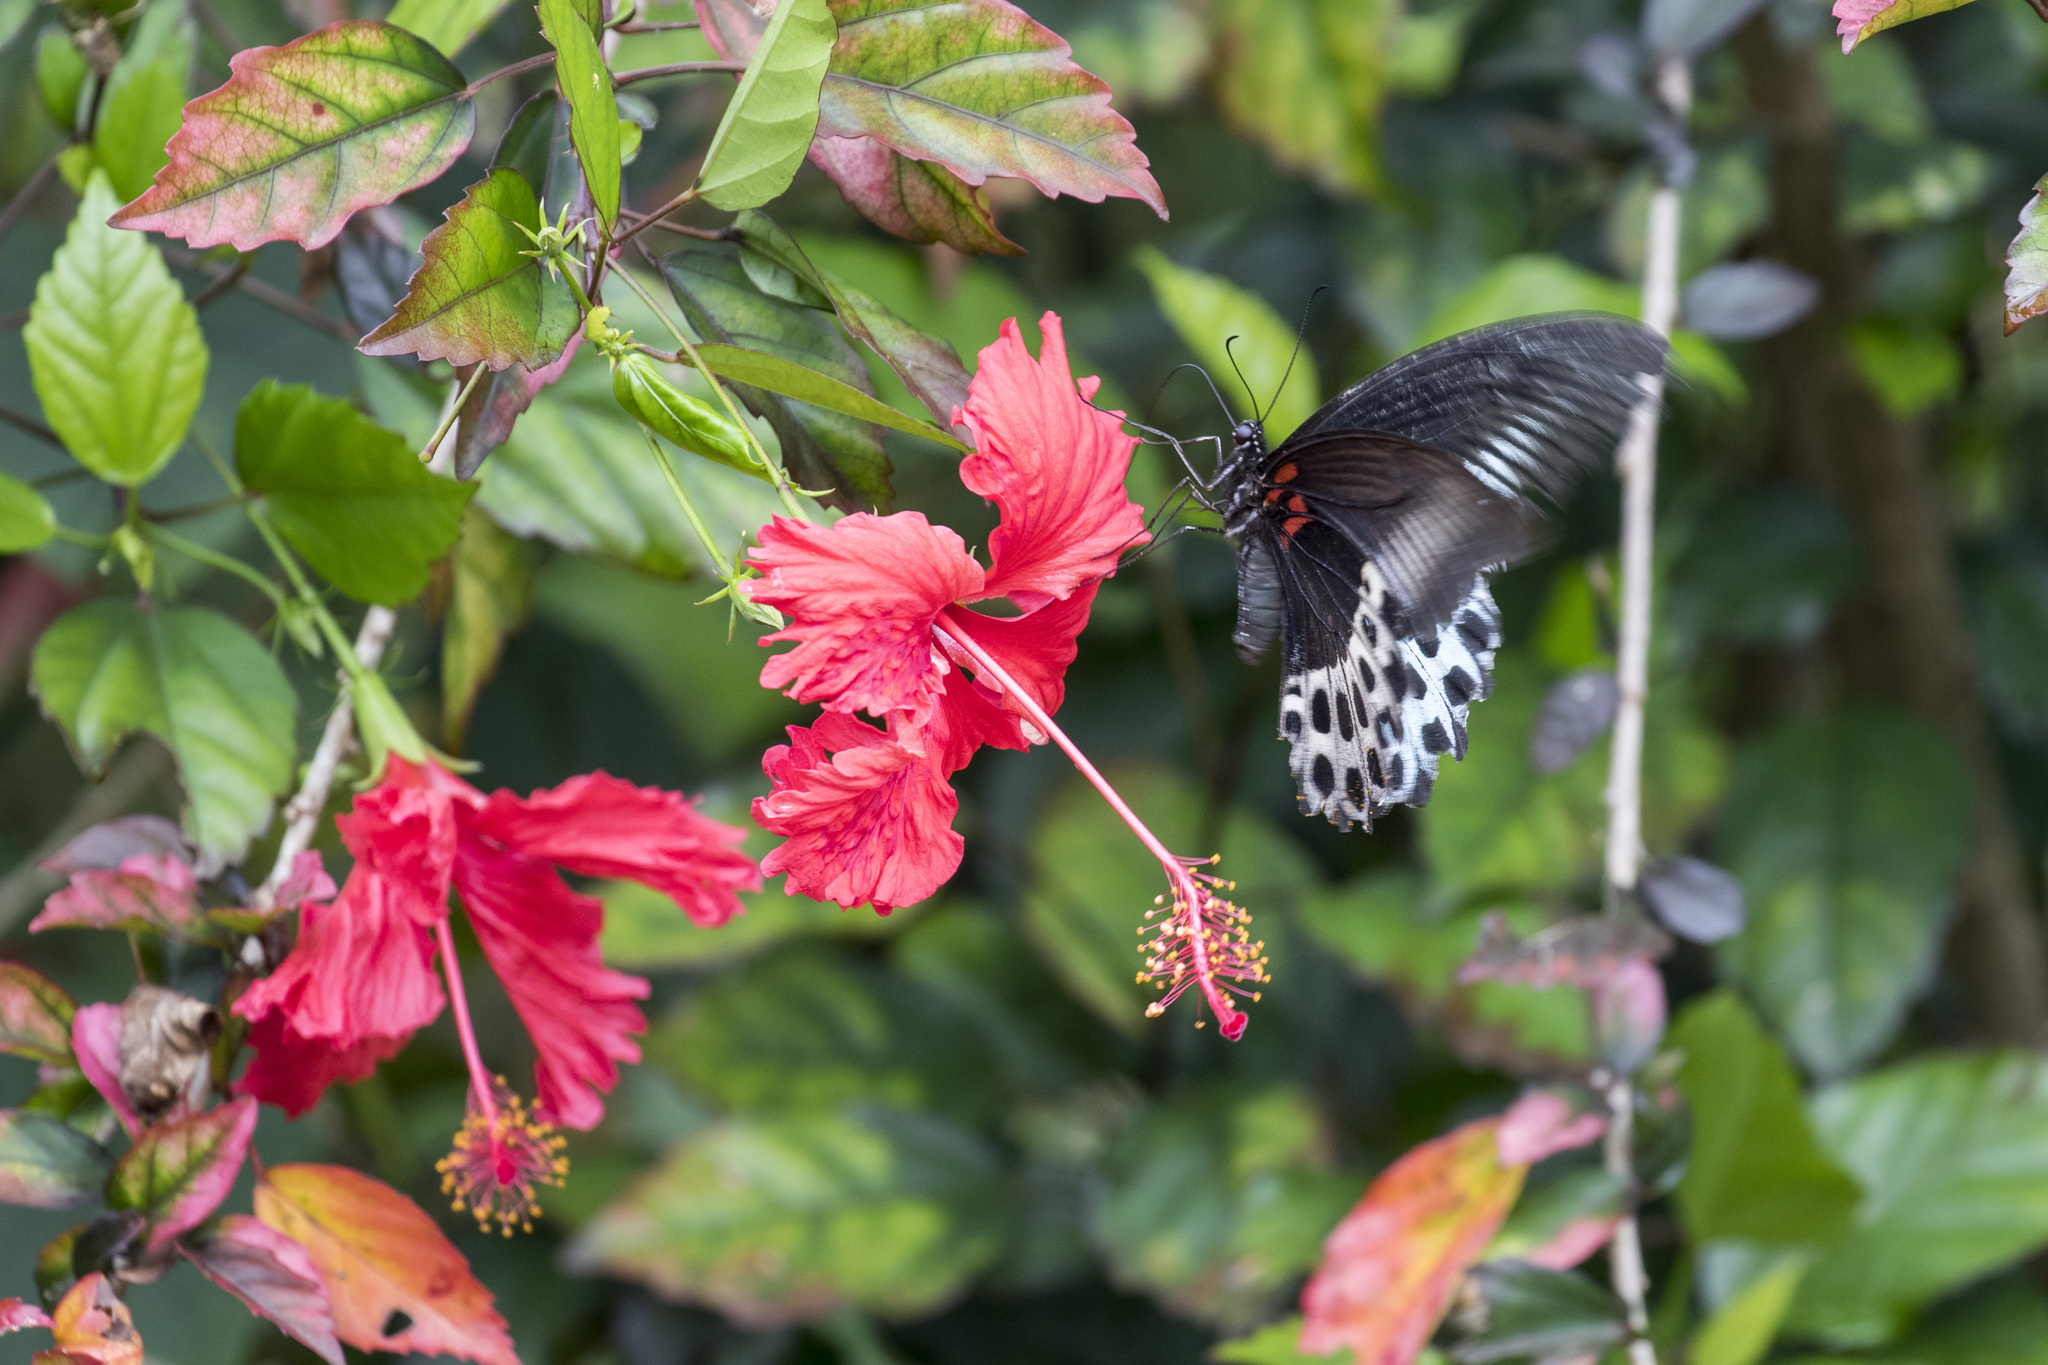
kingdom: Animalia
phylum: Arthropoda
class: Insecta
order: Lepidoptera
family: Papilionidae
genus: Papilio
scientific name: Papilio memnon
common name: Great mormon
